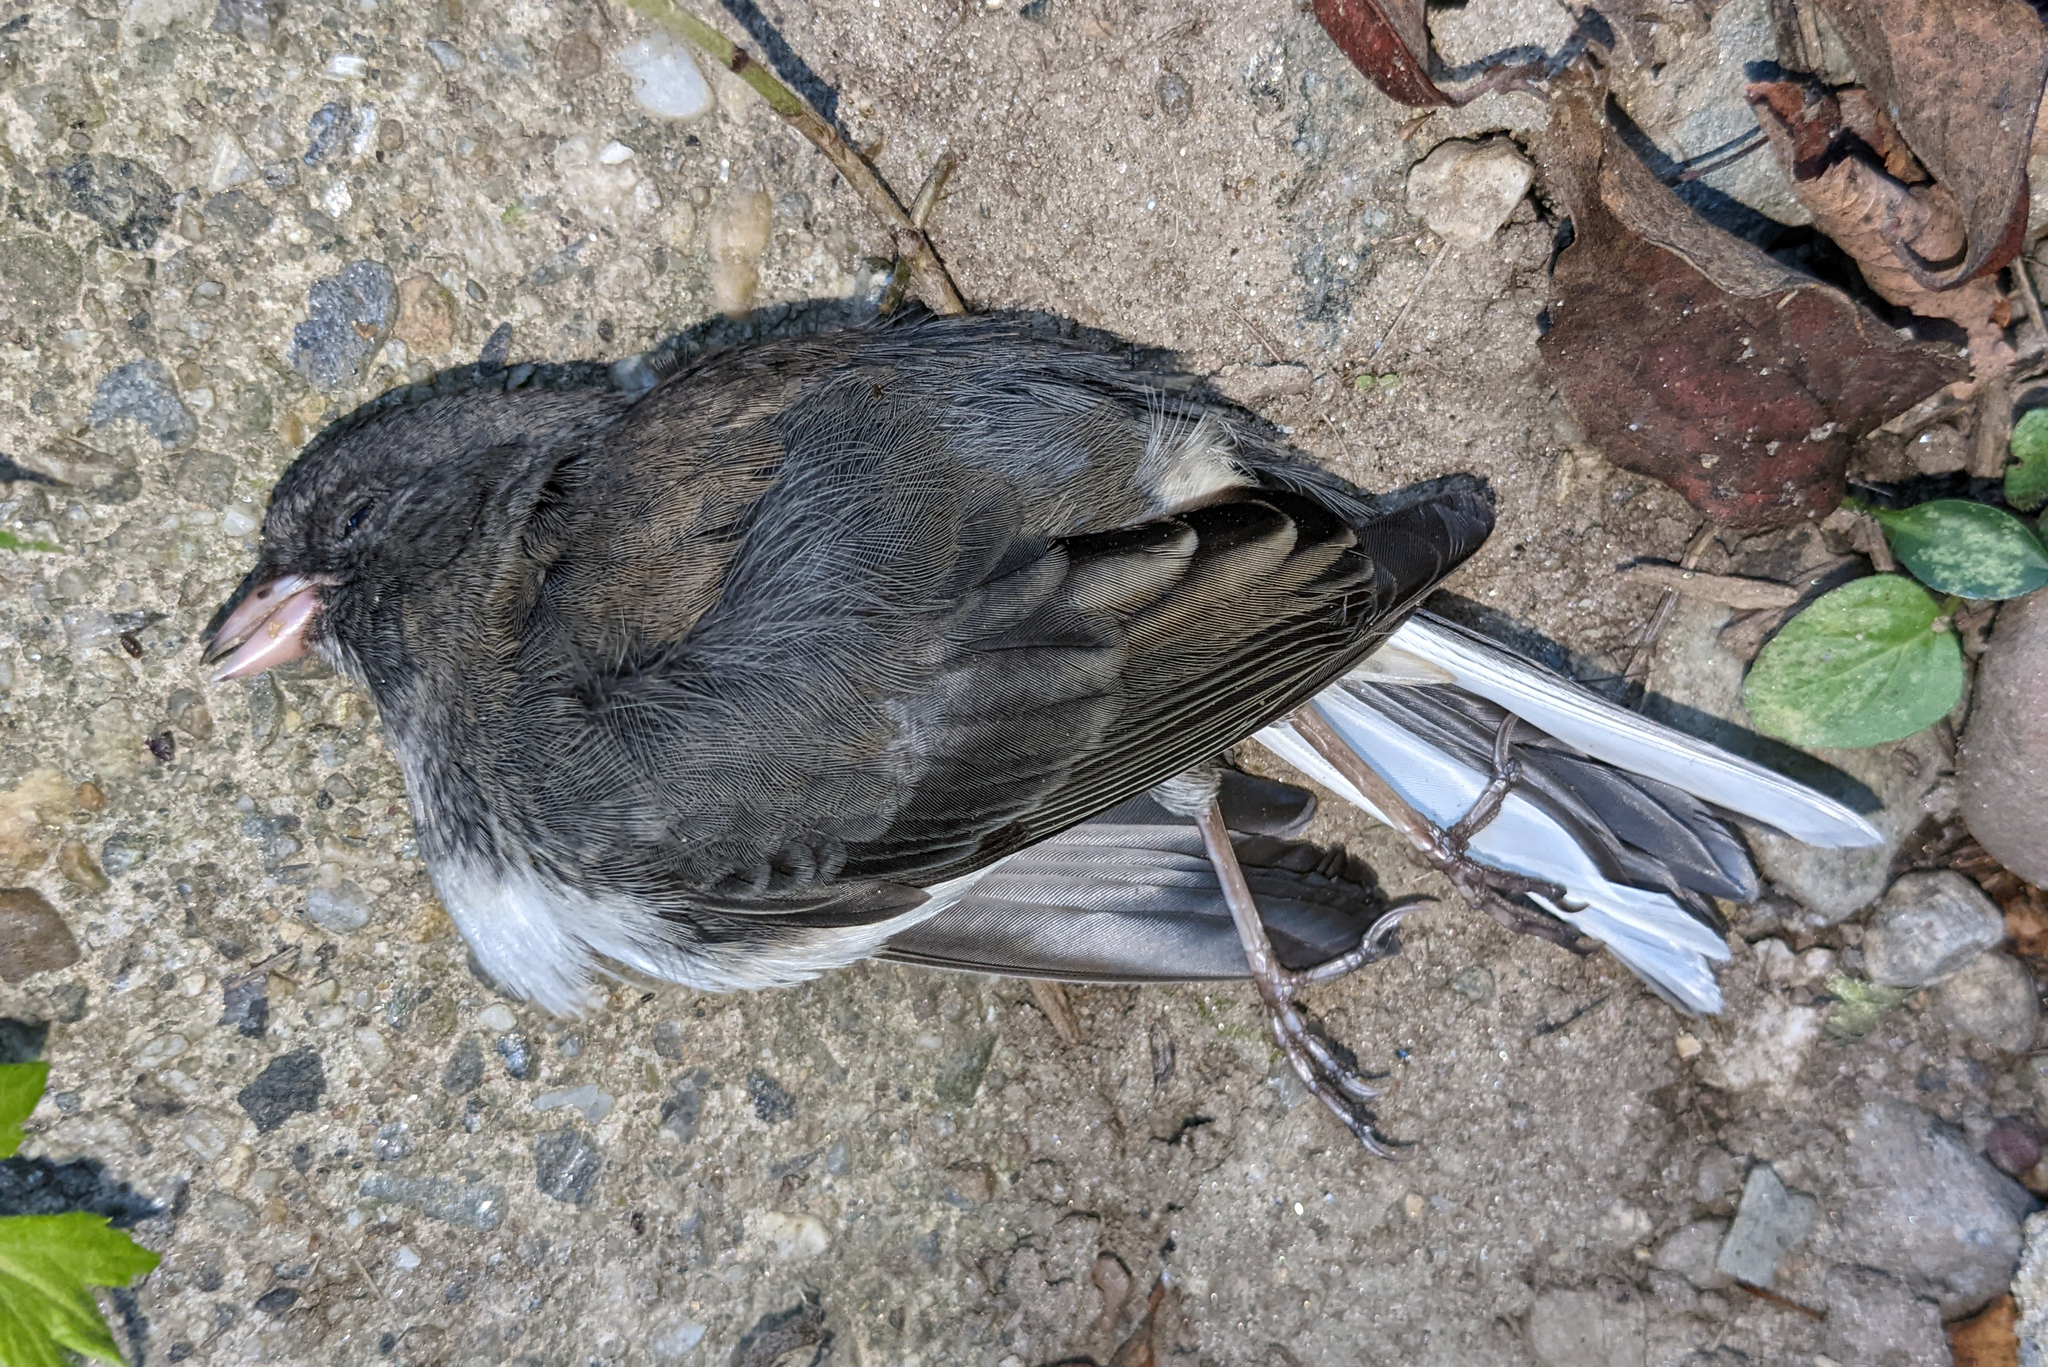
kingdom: Animalia
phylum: Chordata
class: Aves
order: Passeriformes
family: Passerellidae
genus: Junco
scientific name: Junco hyemalis
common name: Dark-eyed junco
